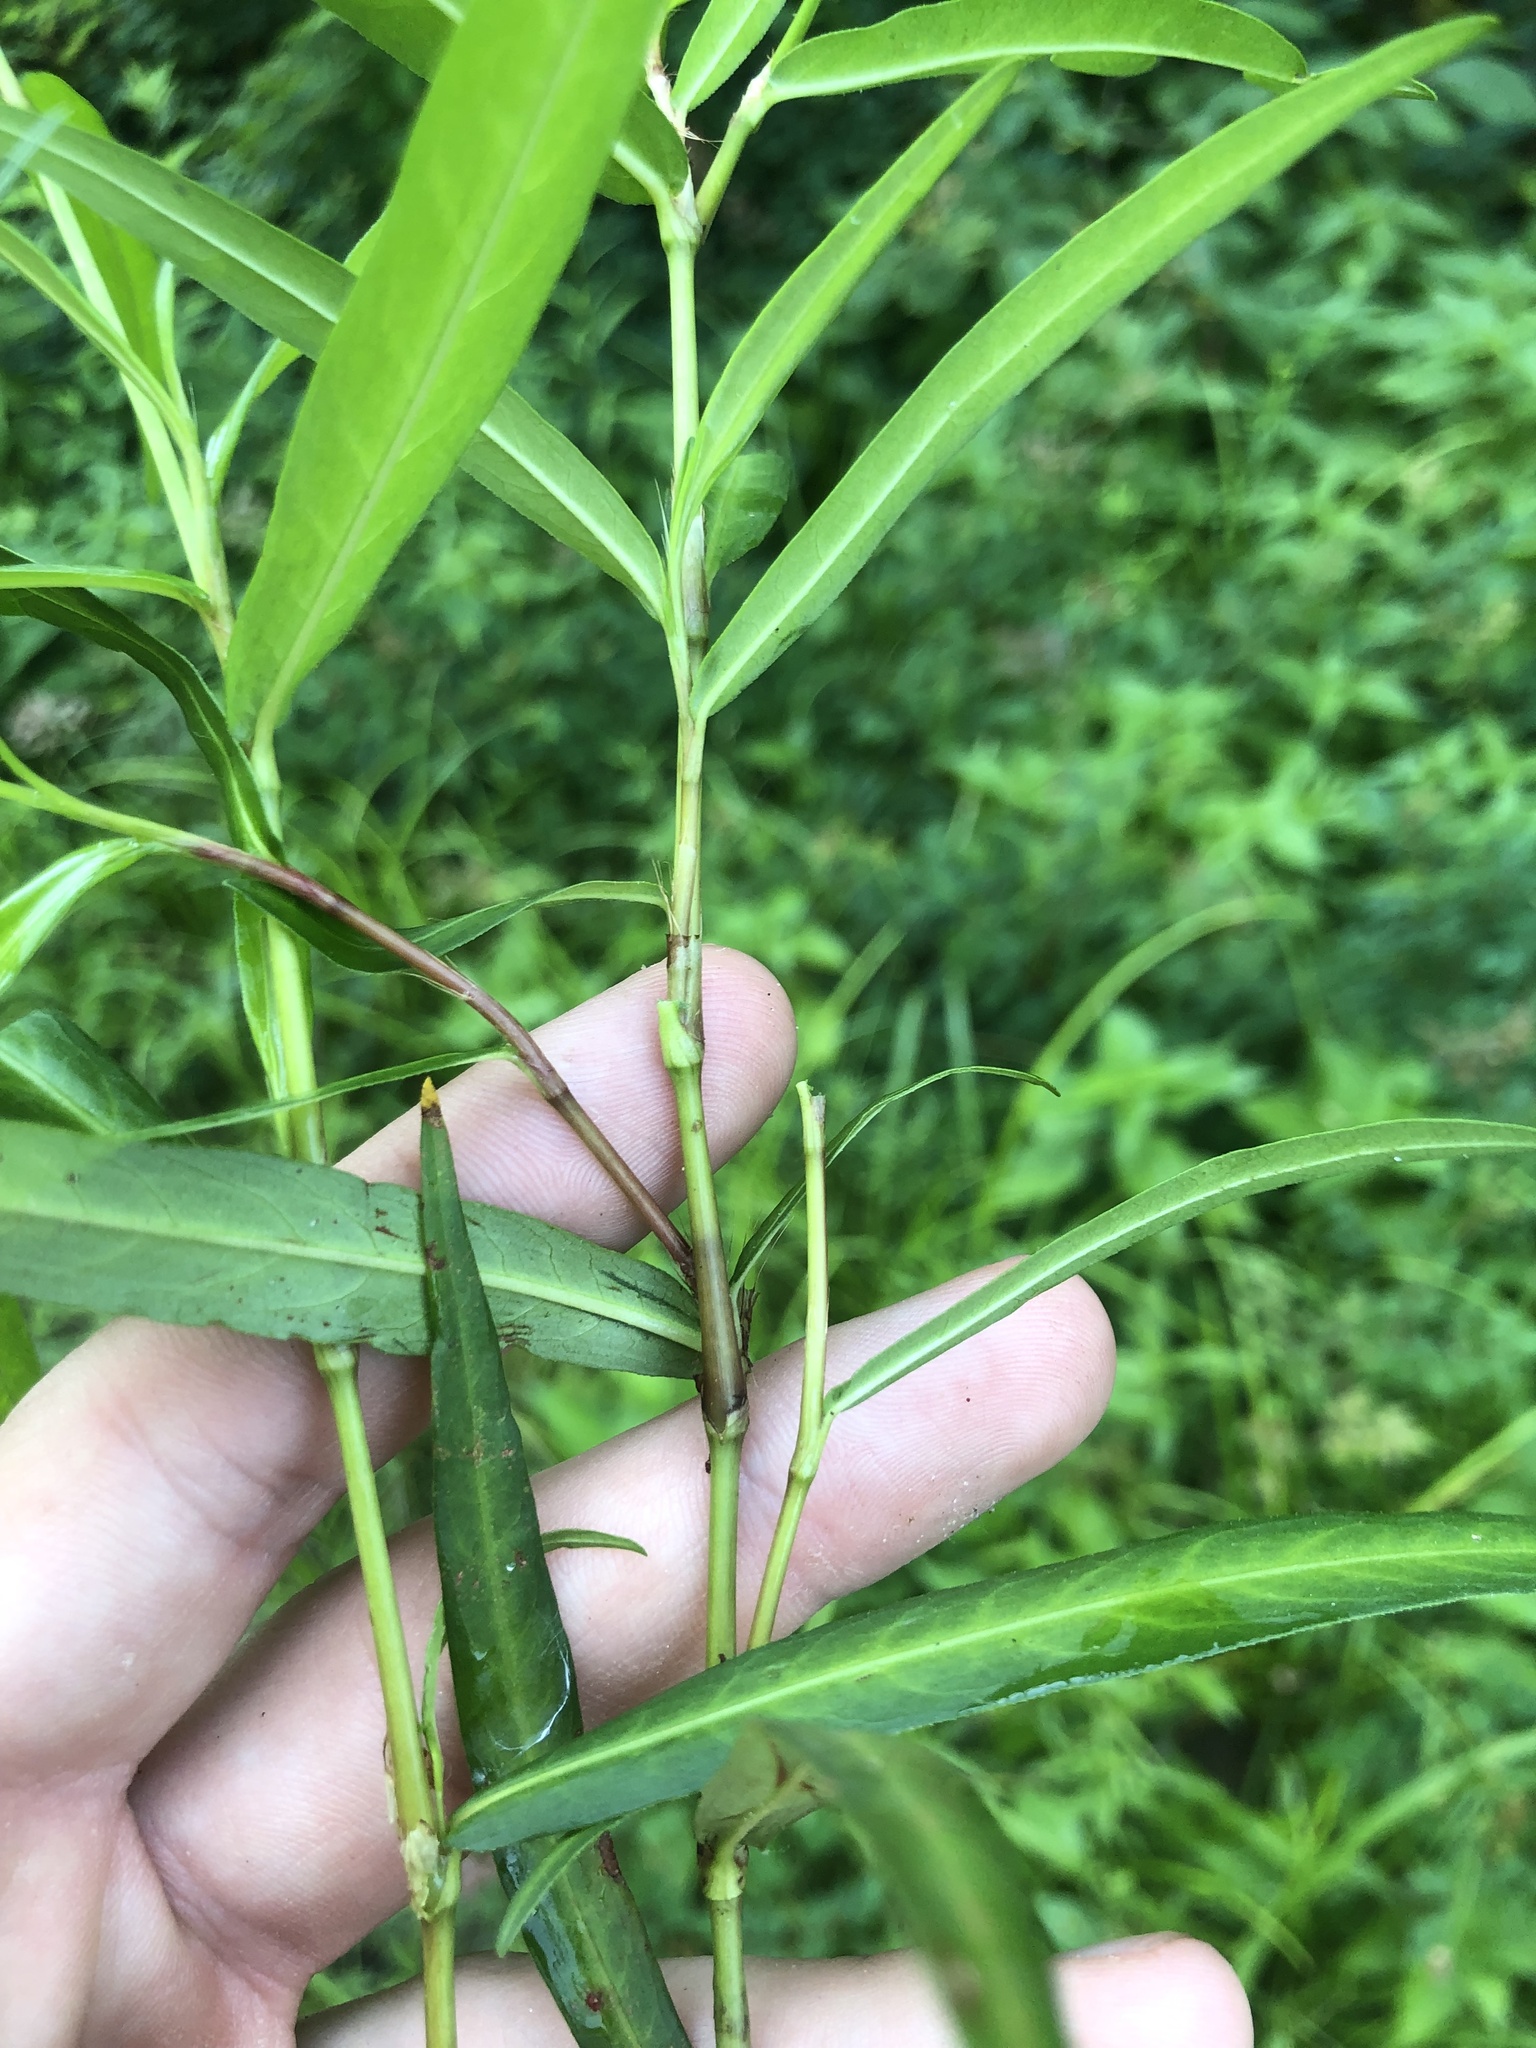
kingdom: Plantae
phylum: Tracheophyta
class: Magnoliopsida
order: Caryophyllales
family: Polygonaceae
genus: Persicaria
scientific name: Persicaria hydropiperoides
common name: Swamp smartweed
